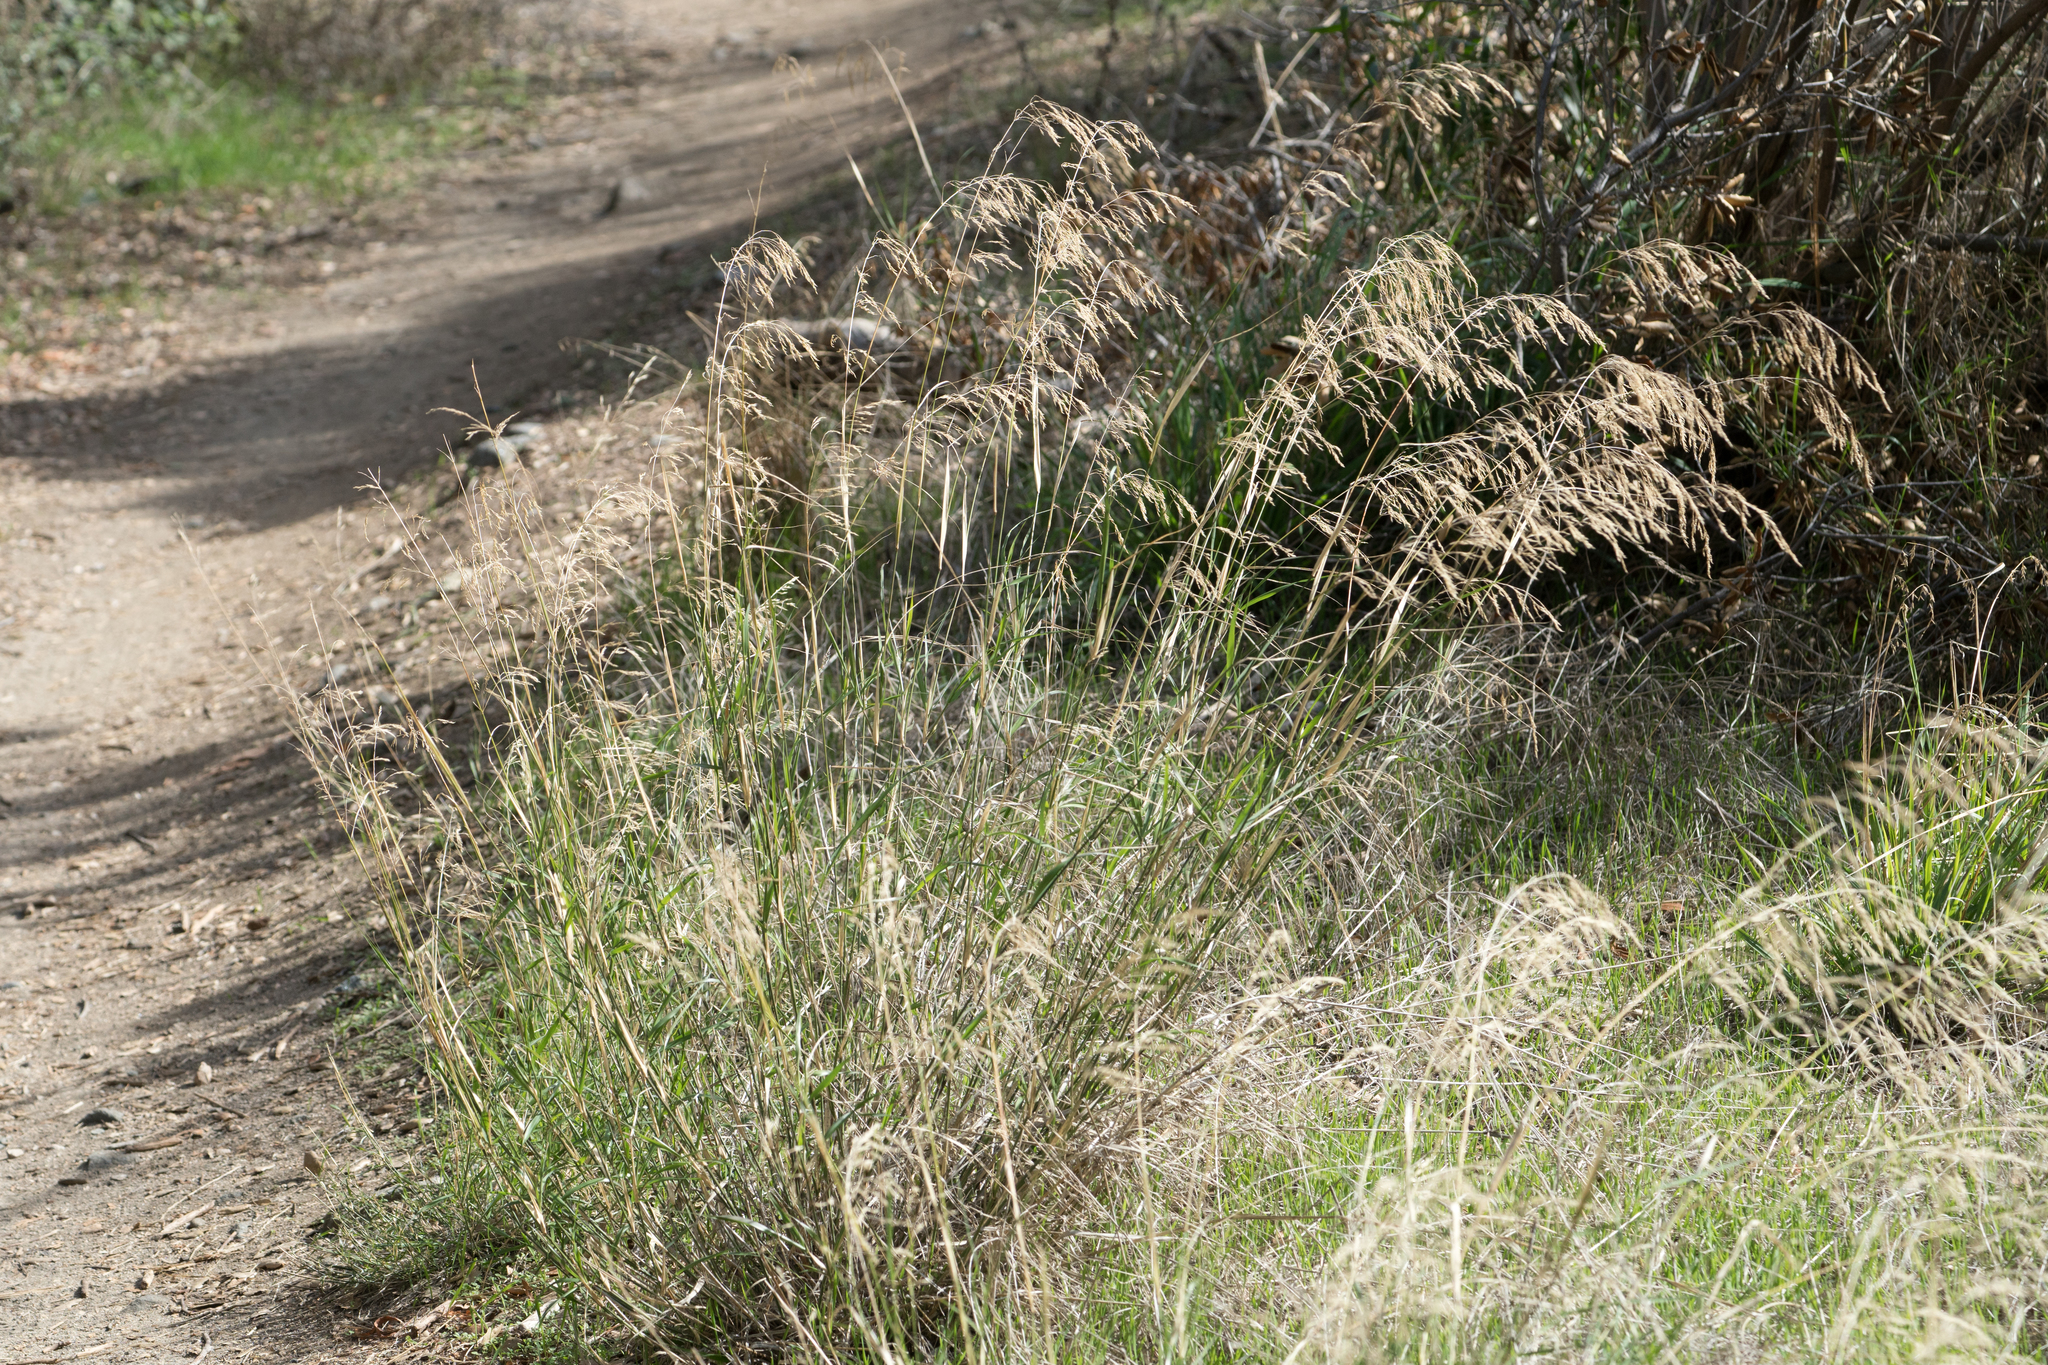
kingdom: Plantae
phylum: Tracheophyta
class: Liliopsida
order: Poales
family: Poaceae
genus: Oloptum
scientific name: Oloptum miliaceum
